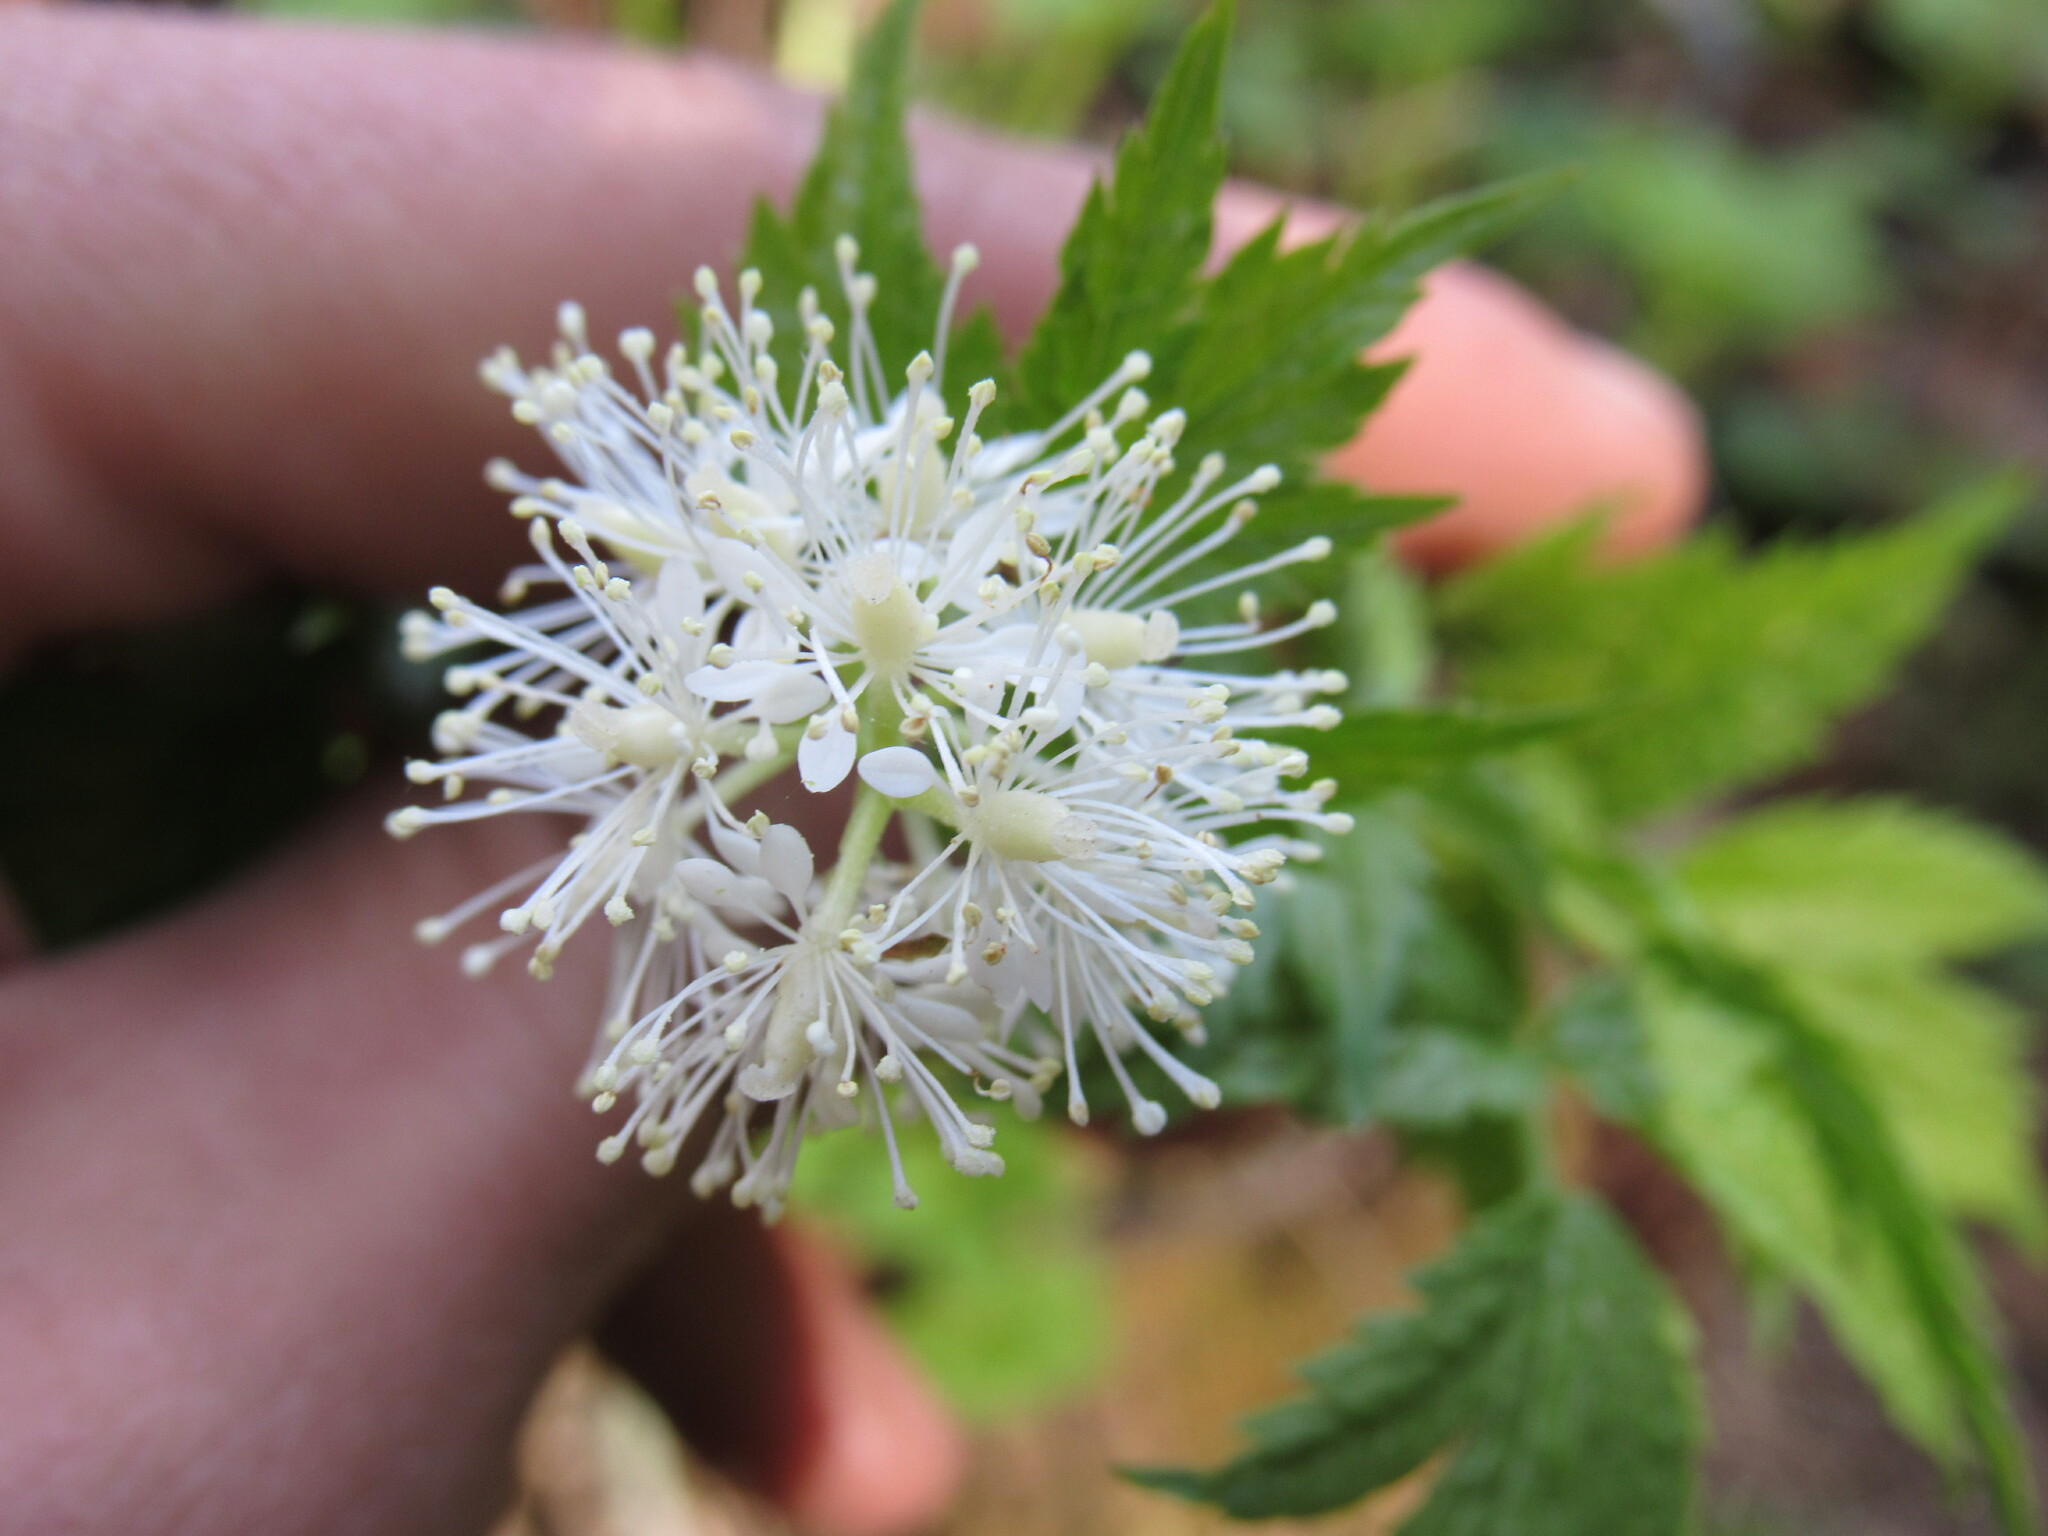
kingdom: Plantae
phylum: Tracheophyta
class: Magnoliopsida
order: Ranunculales
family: Ranunculaceae
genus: Actaea
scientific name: Actaea rubra
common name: Red baneberry
